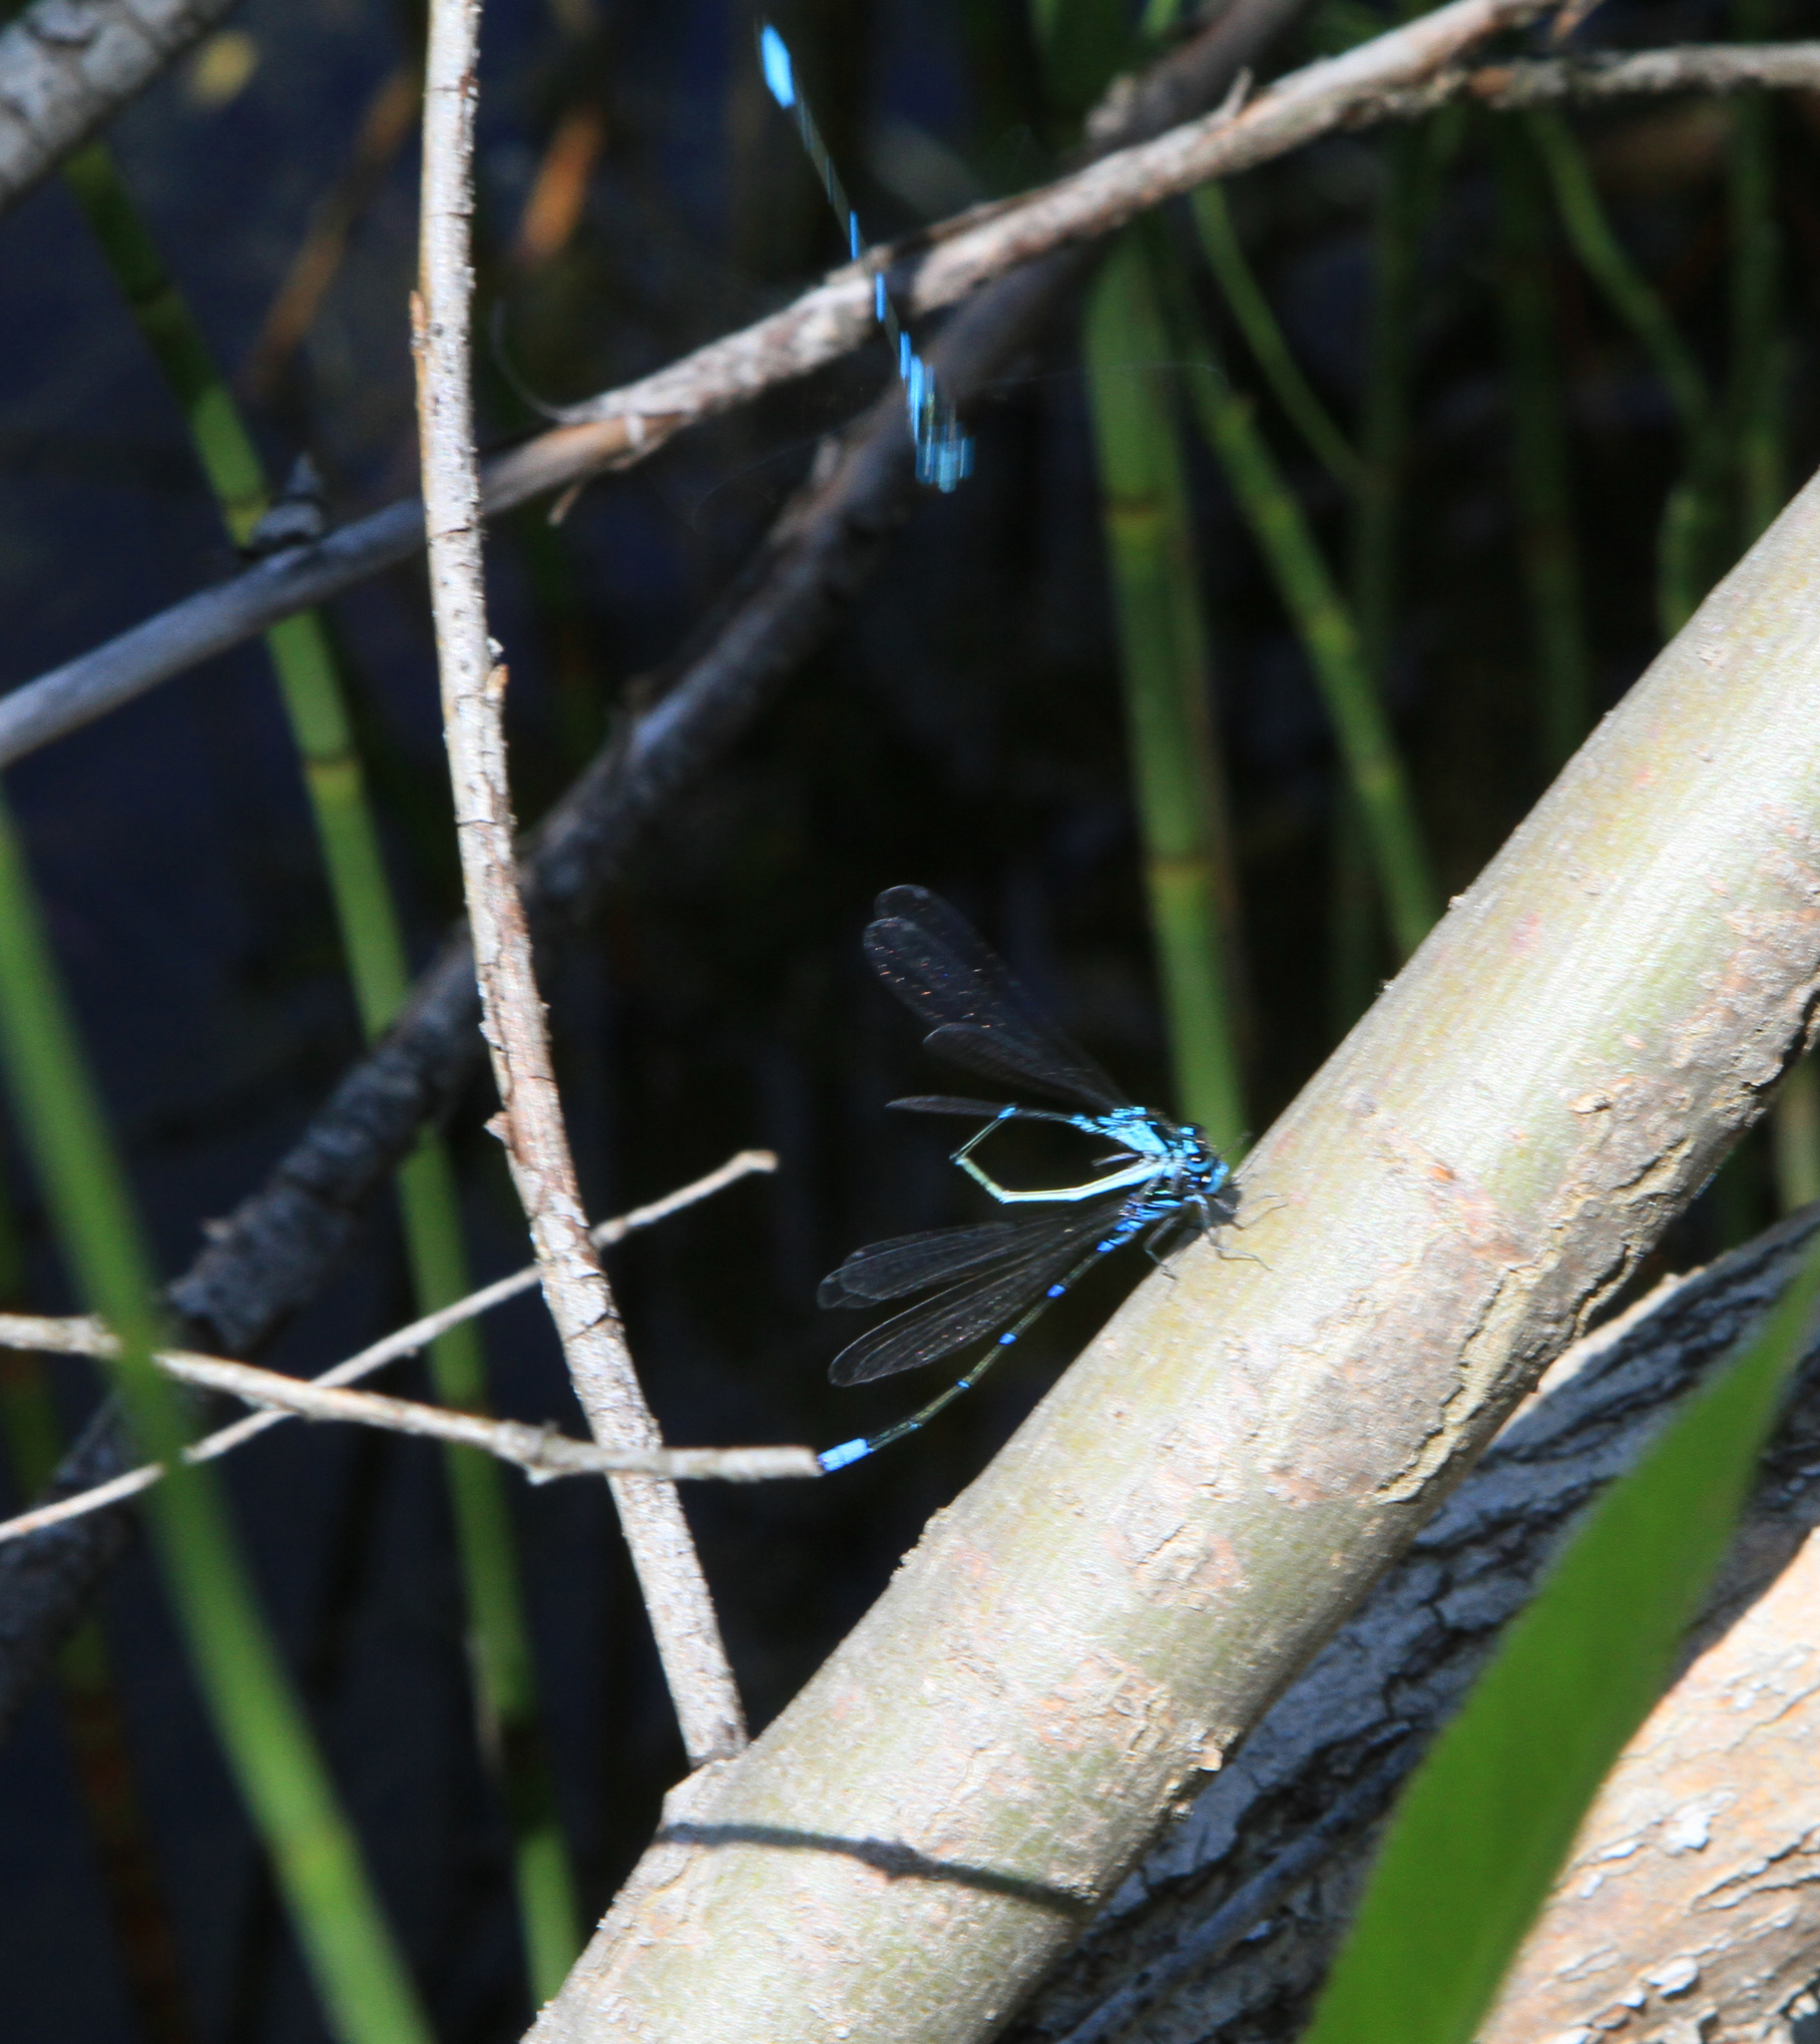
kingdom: Animalia
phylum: Arthropoda
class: Insecta
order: Odonata
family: Coenagrionidae
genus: Coenagrion
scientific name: Coenagrion pulchellum
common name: Variable bluet
